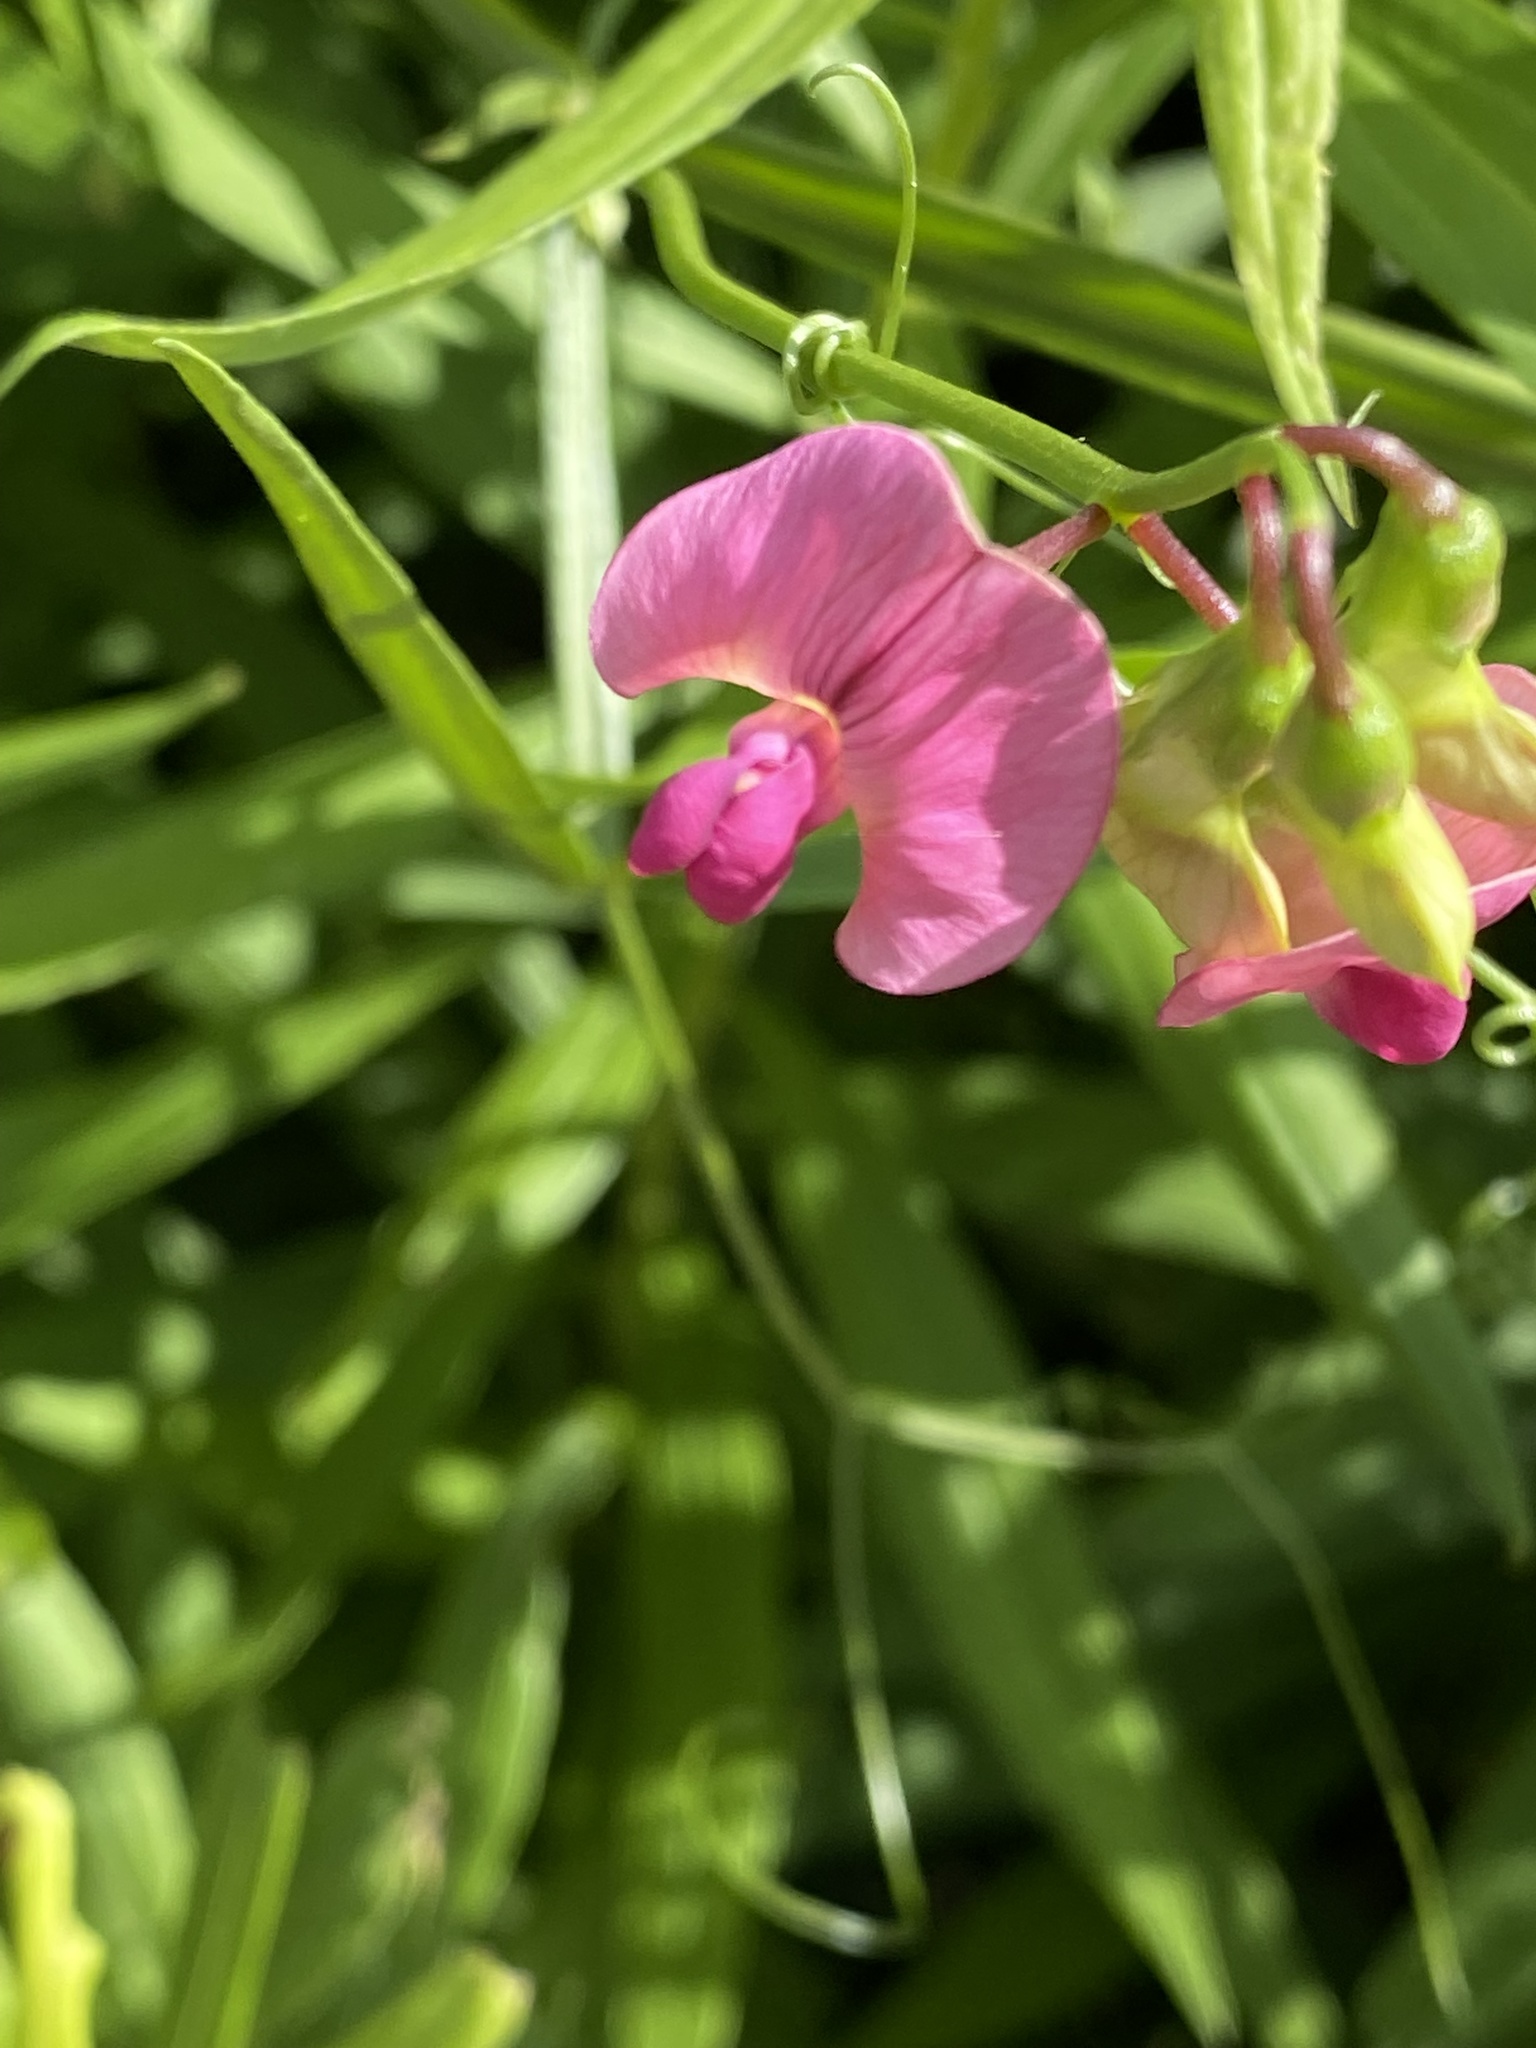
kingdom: Plantae
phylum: Tracheophyta
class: Magnoliopsida
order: Fabales
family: Fabaceae
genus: Lathyrus
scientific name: Lathyrus sylvestris
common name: Flat pea
